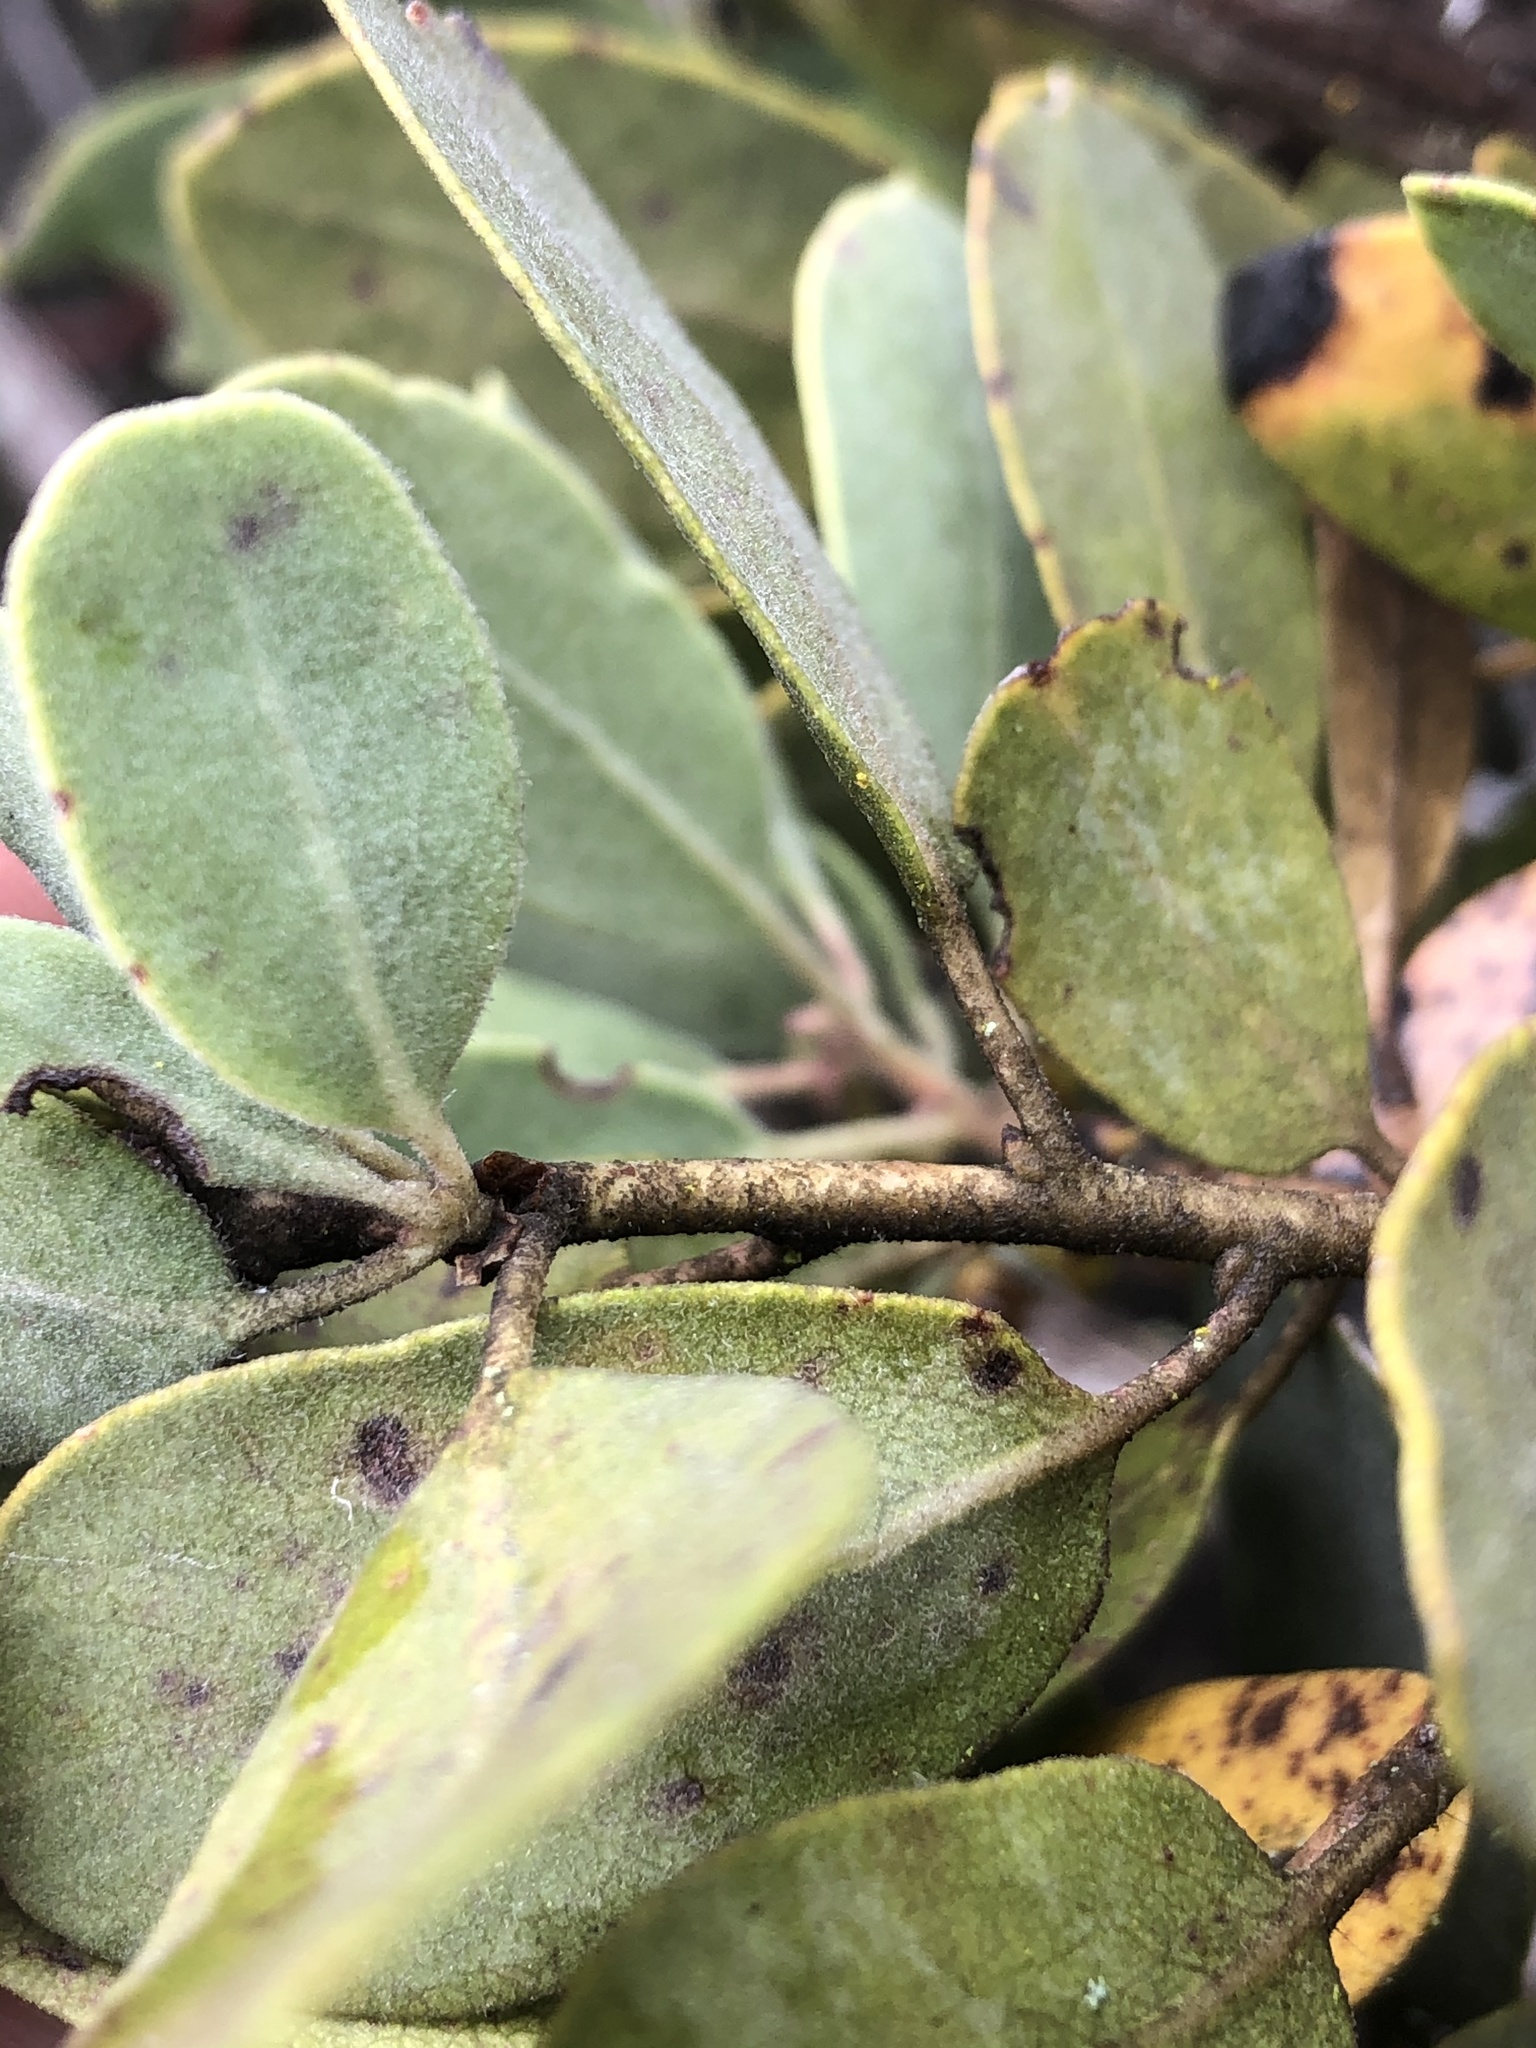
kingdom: Plantae
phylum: Tracheophyta
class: Magnoliopsida
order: Ericales
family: Ericaceae
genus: Arctostaphylos
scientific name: Arctostaphylos glandulosa
